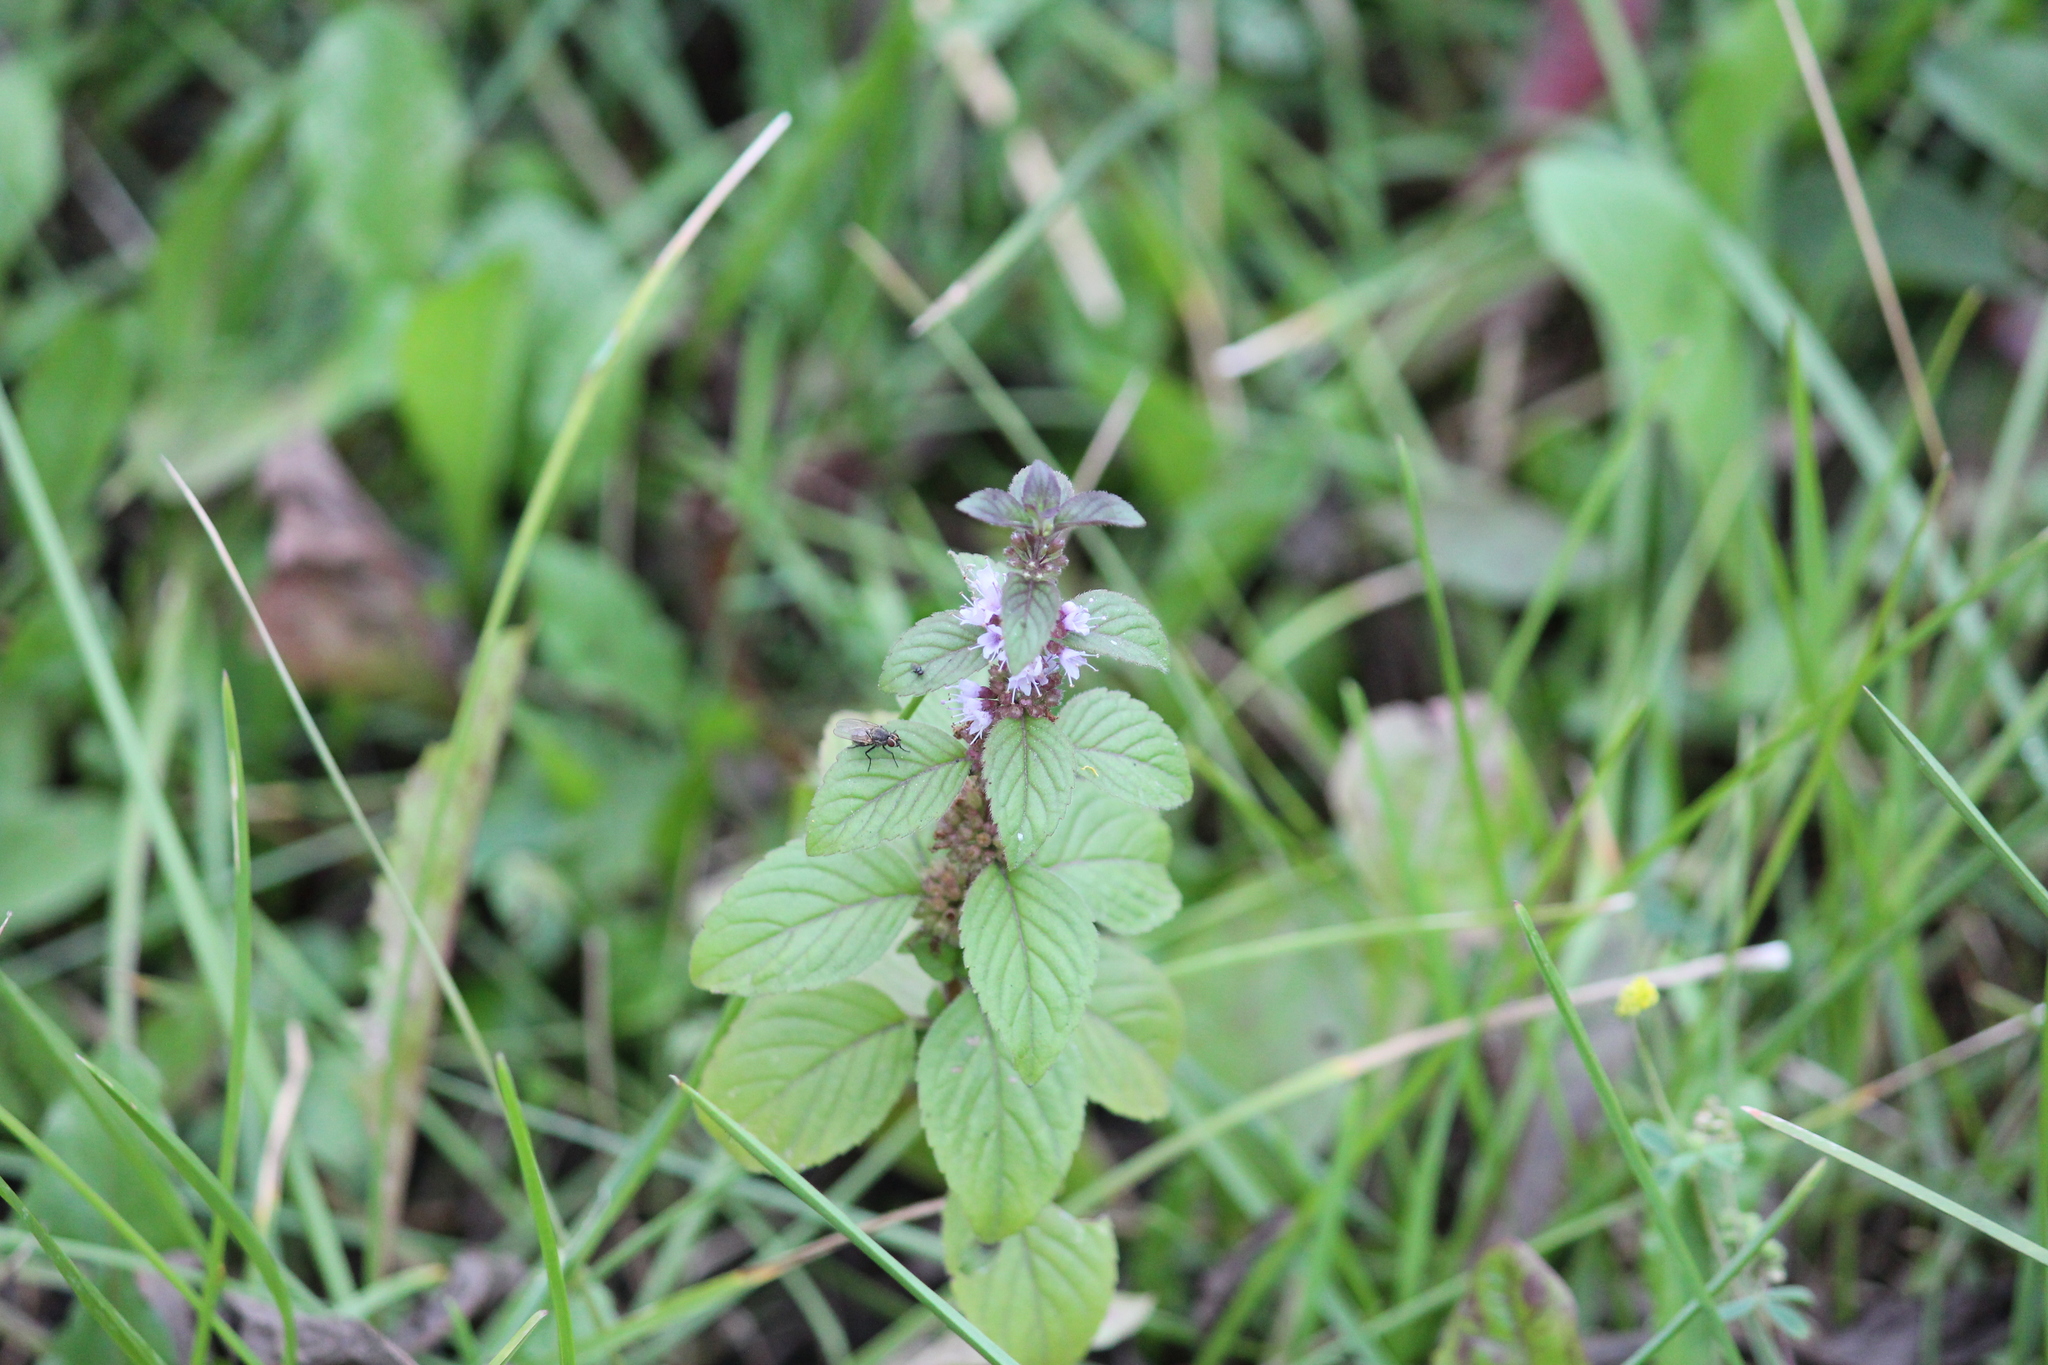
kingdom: Plantae
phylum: Tracheophyta
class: Magnoliopsida
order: Lamiales
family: Lamiaceae
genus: Mentha
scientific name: Mentha arvensis
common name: Corn mint
